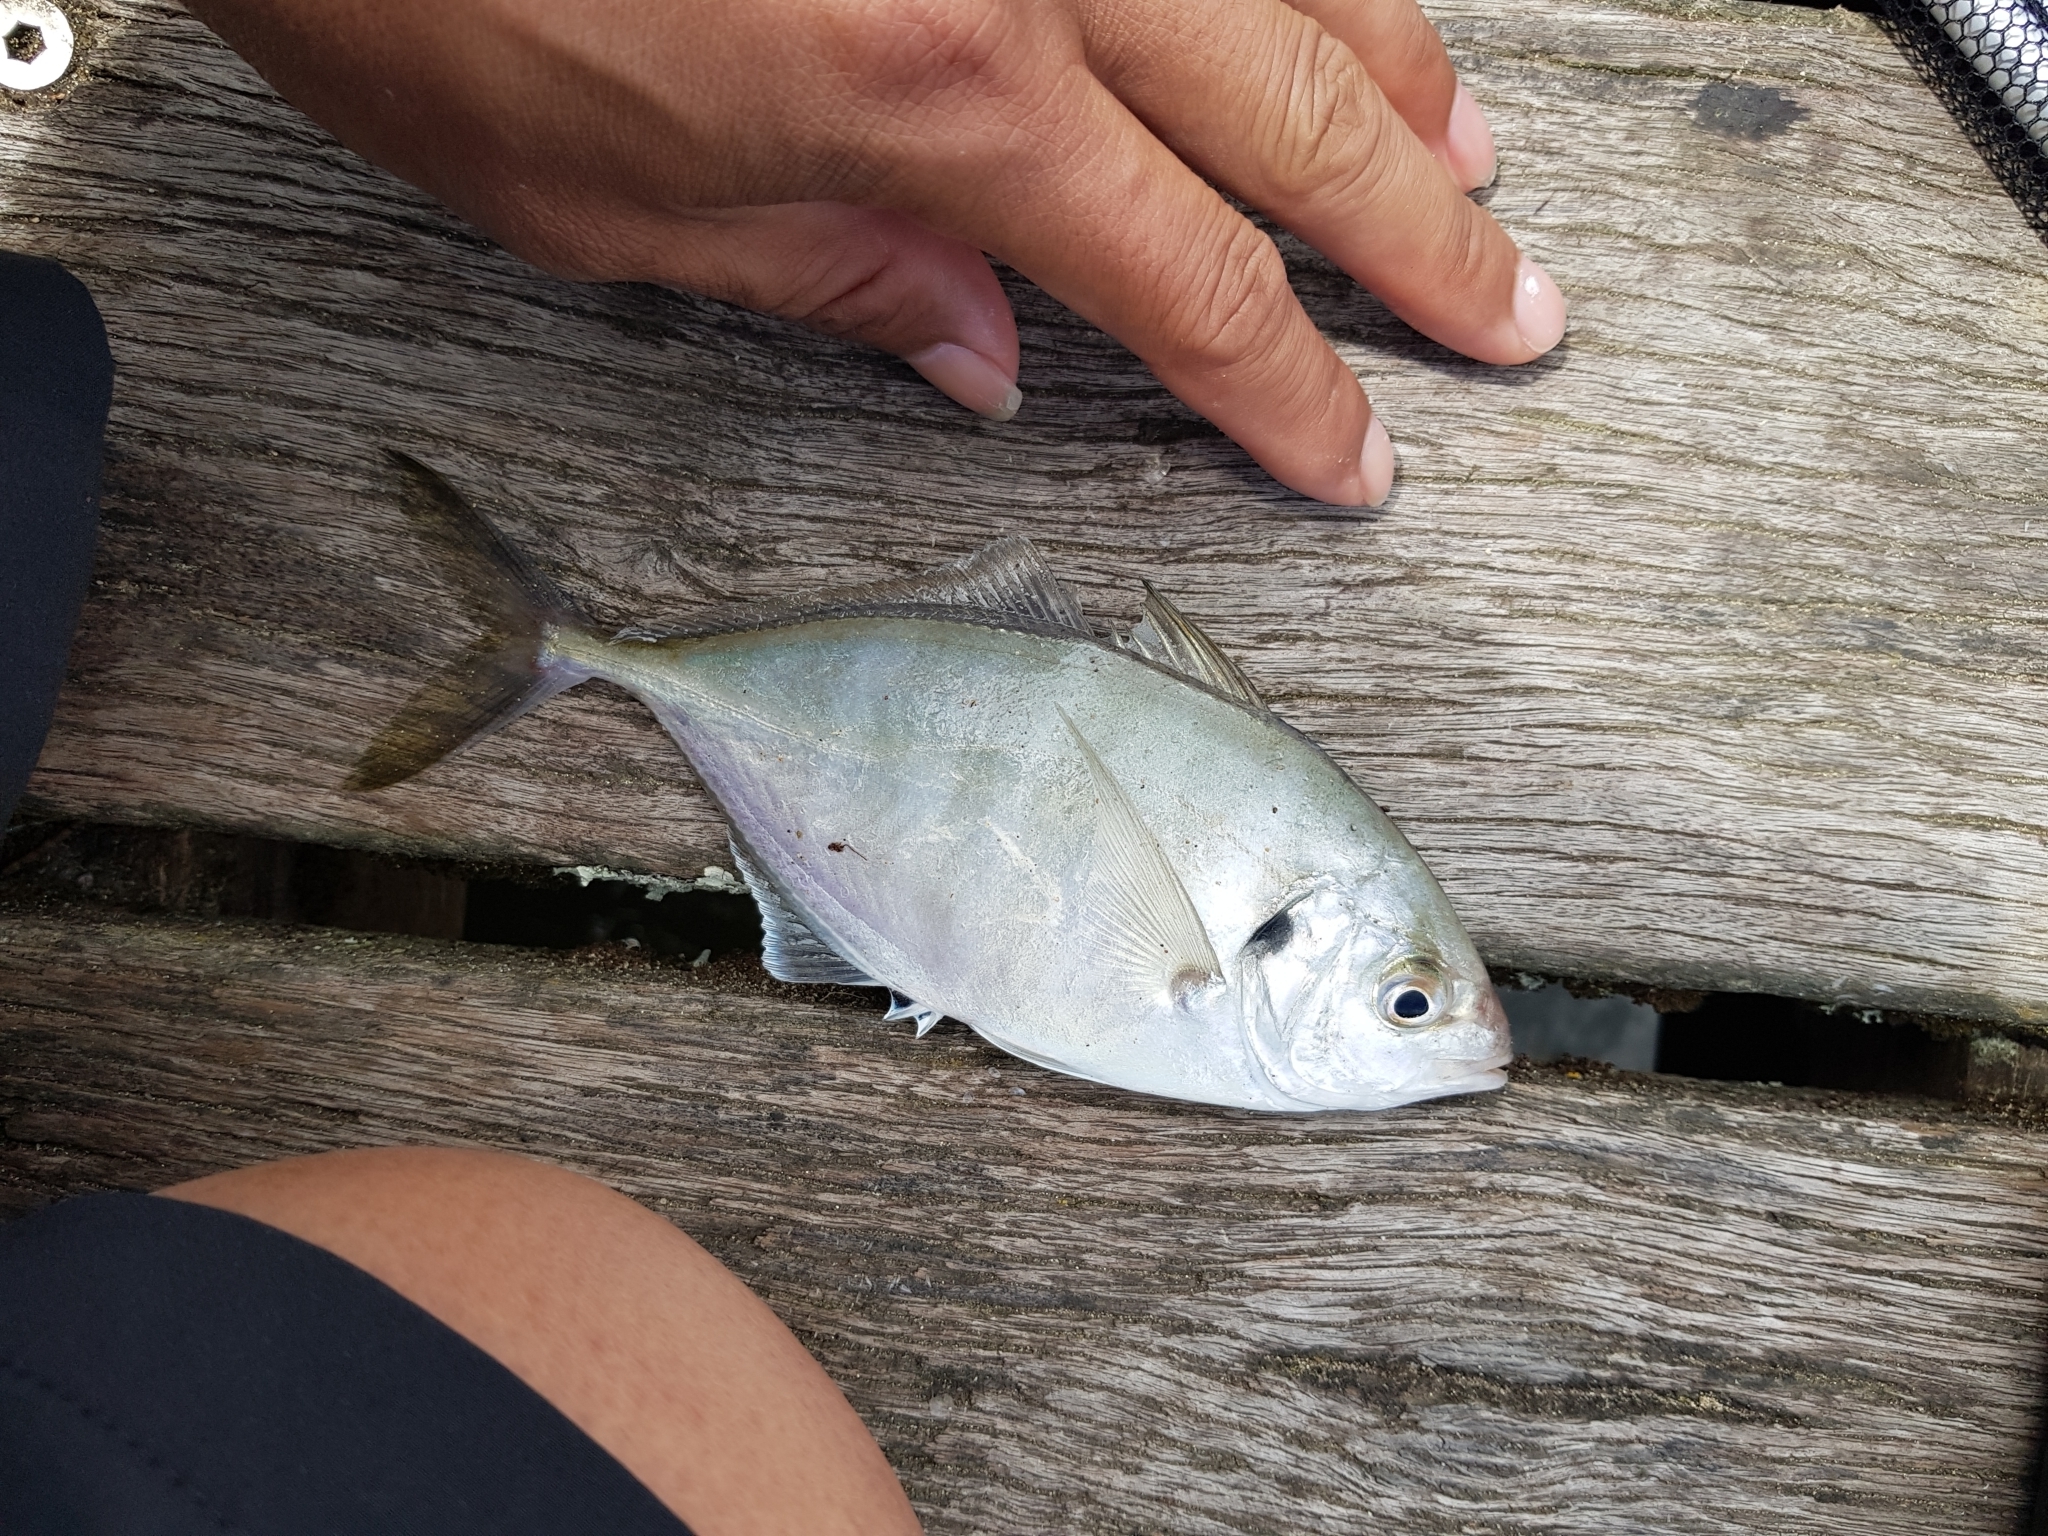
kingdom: Animalia
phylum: Chordata
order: Perciformes
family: Carangidae
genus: Pseudocaranx
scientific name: Pseudocaranx dentex
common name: White trevally
